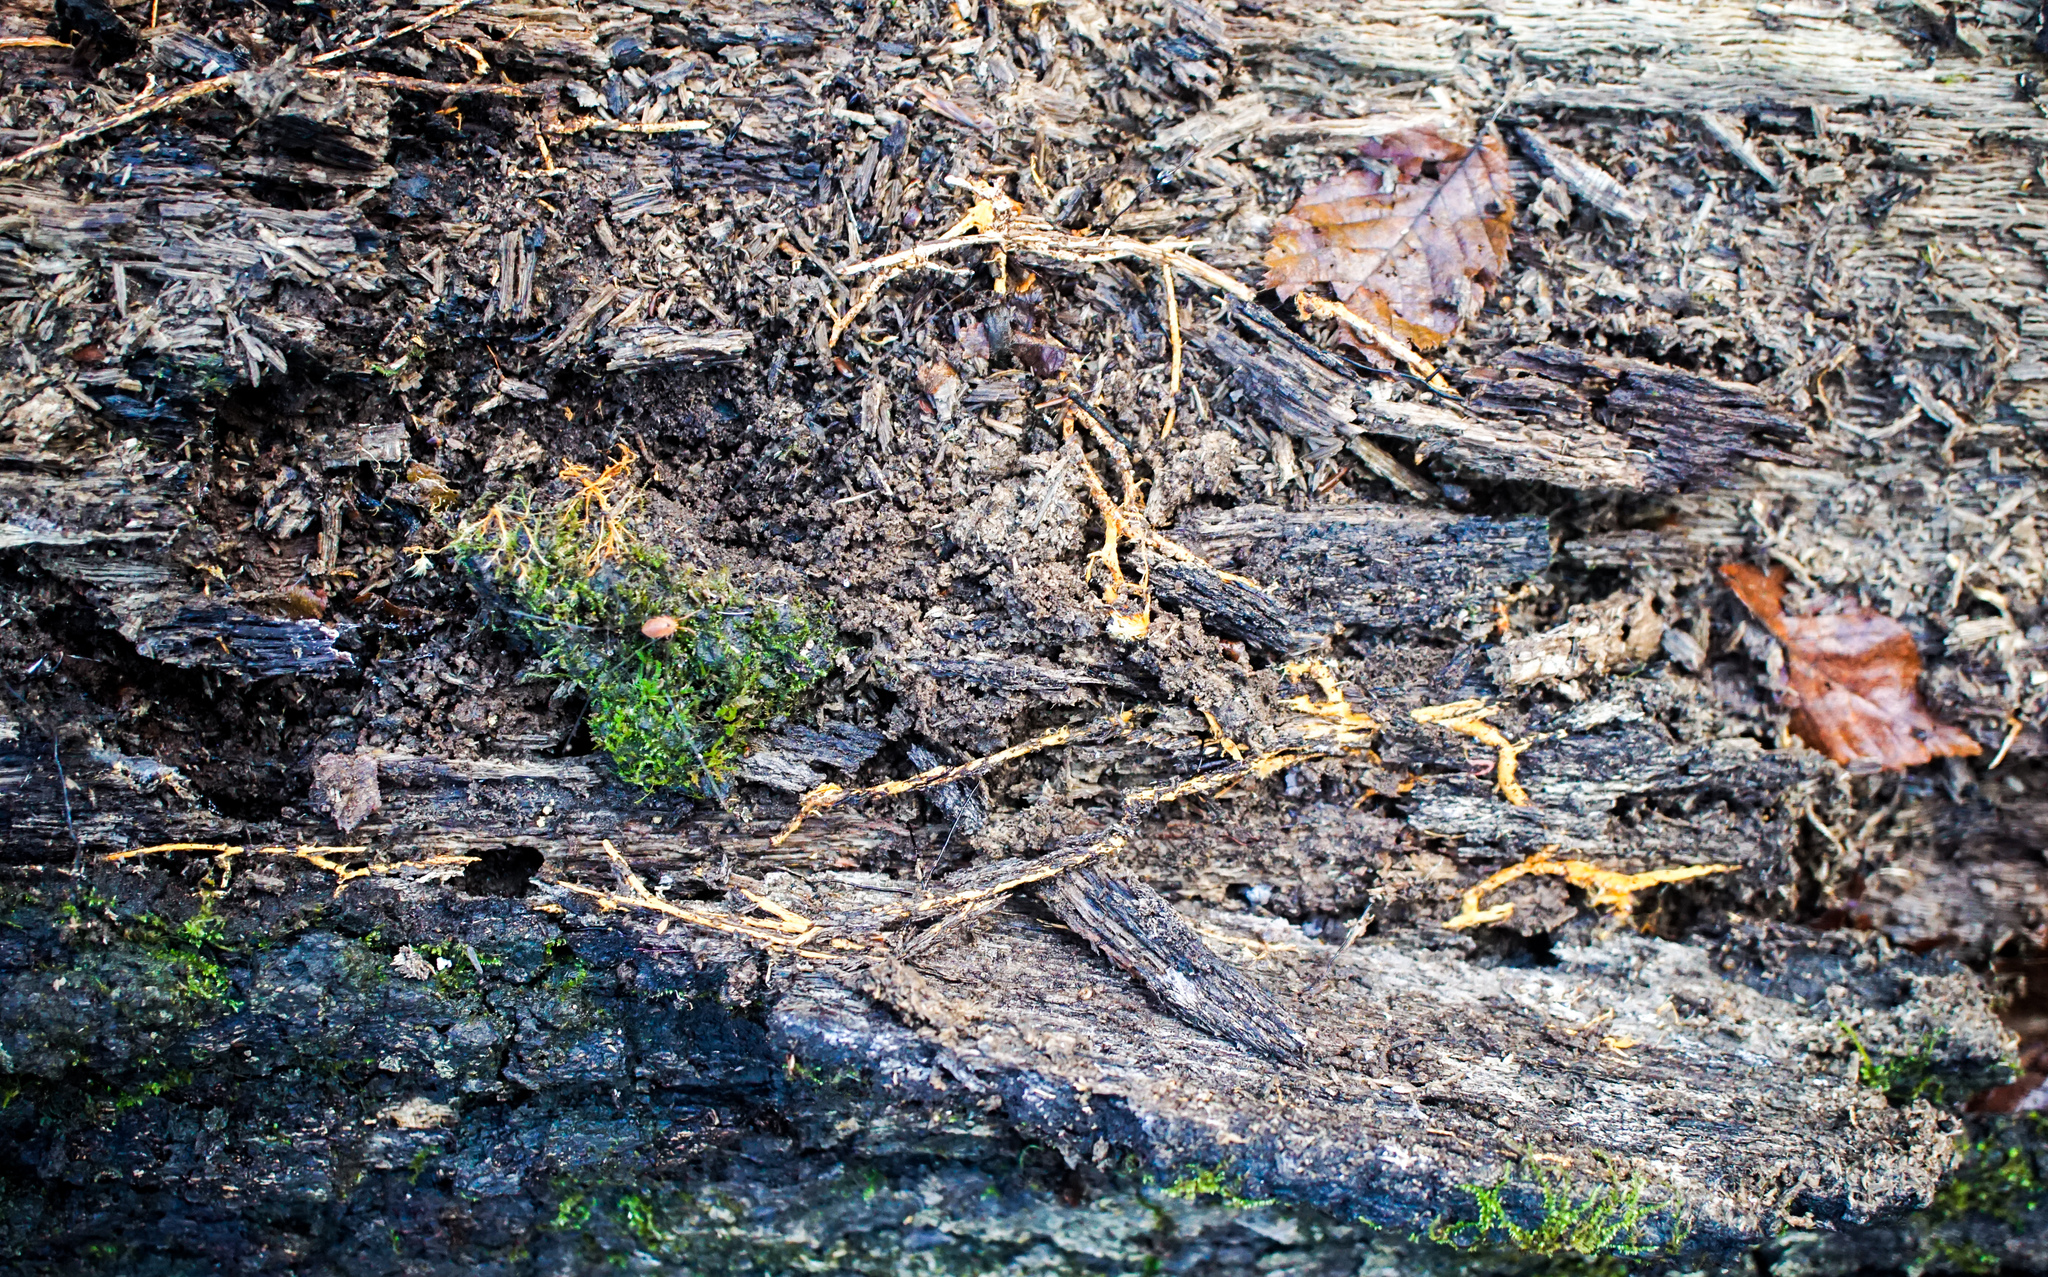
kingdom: Fungi
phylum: Basidiomycota
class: Agaricomycetes
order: Polyporales
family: Meruliaceae
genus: Hydnophlebia
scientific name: Hydnophlebia chrysorhiza
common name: Spreading yellow tooth
